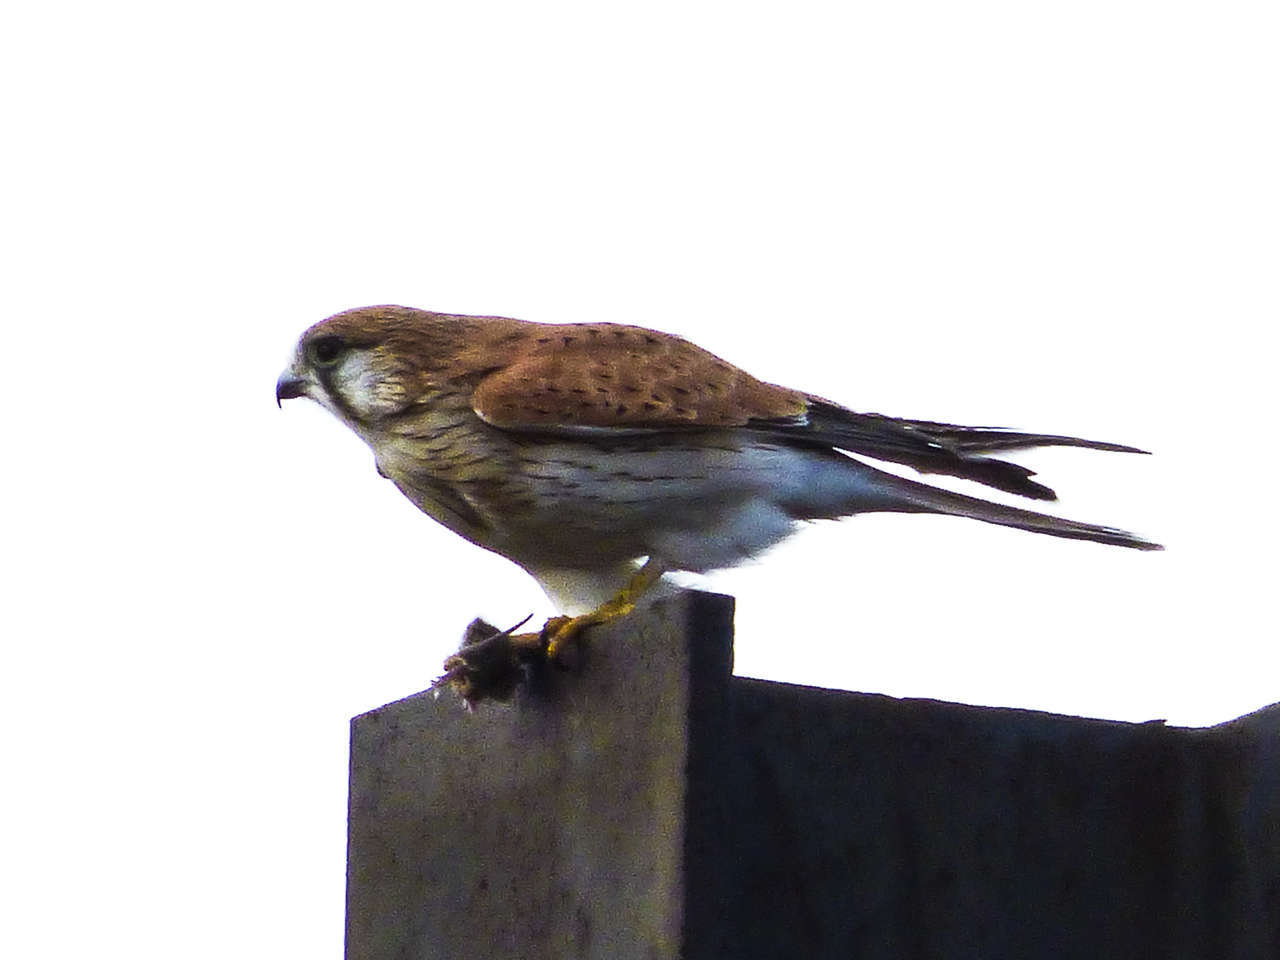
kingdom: Animalia
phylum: Chordata
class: Aves
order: Falconiformes
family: Falconidae
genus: Falco
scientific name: Falco cenchroides
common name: Nankeen kestrel
